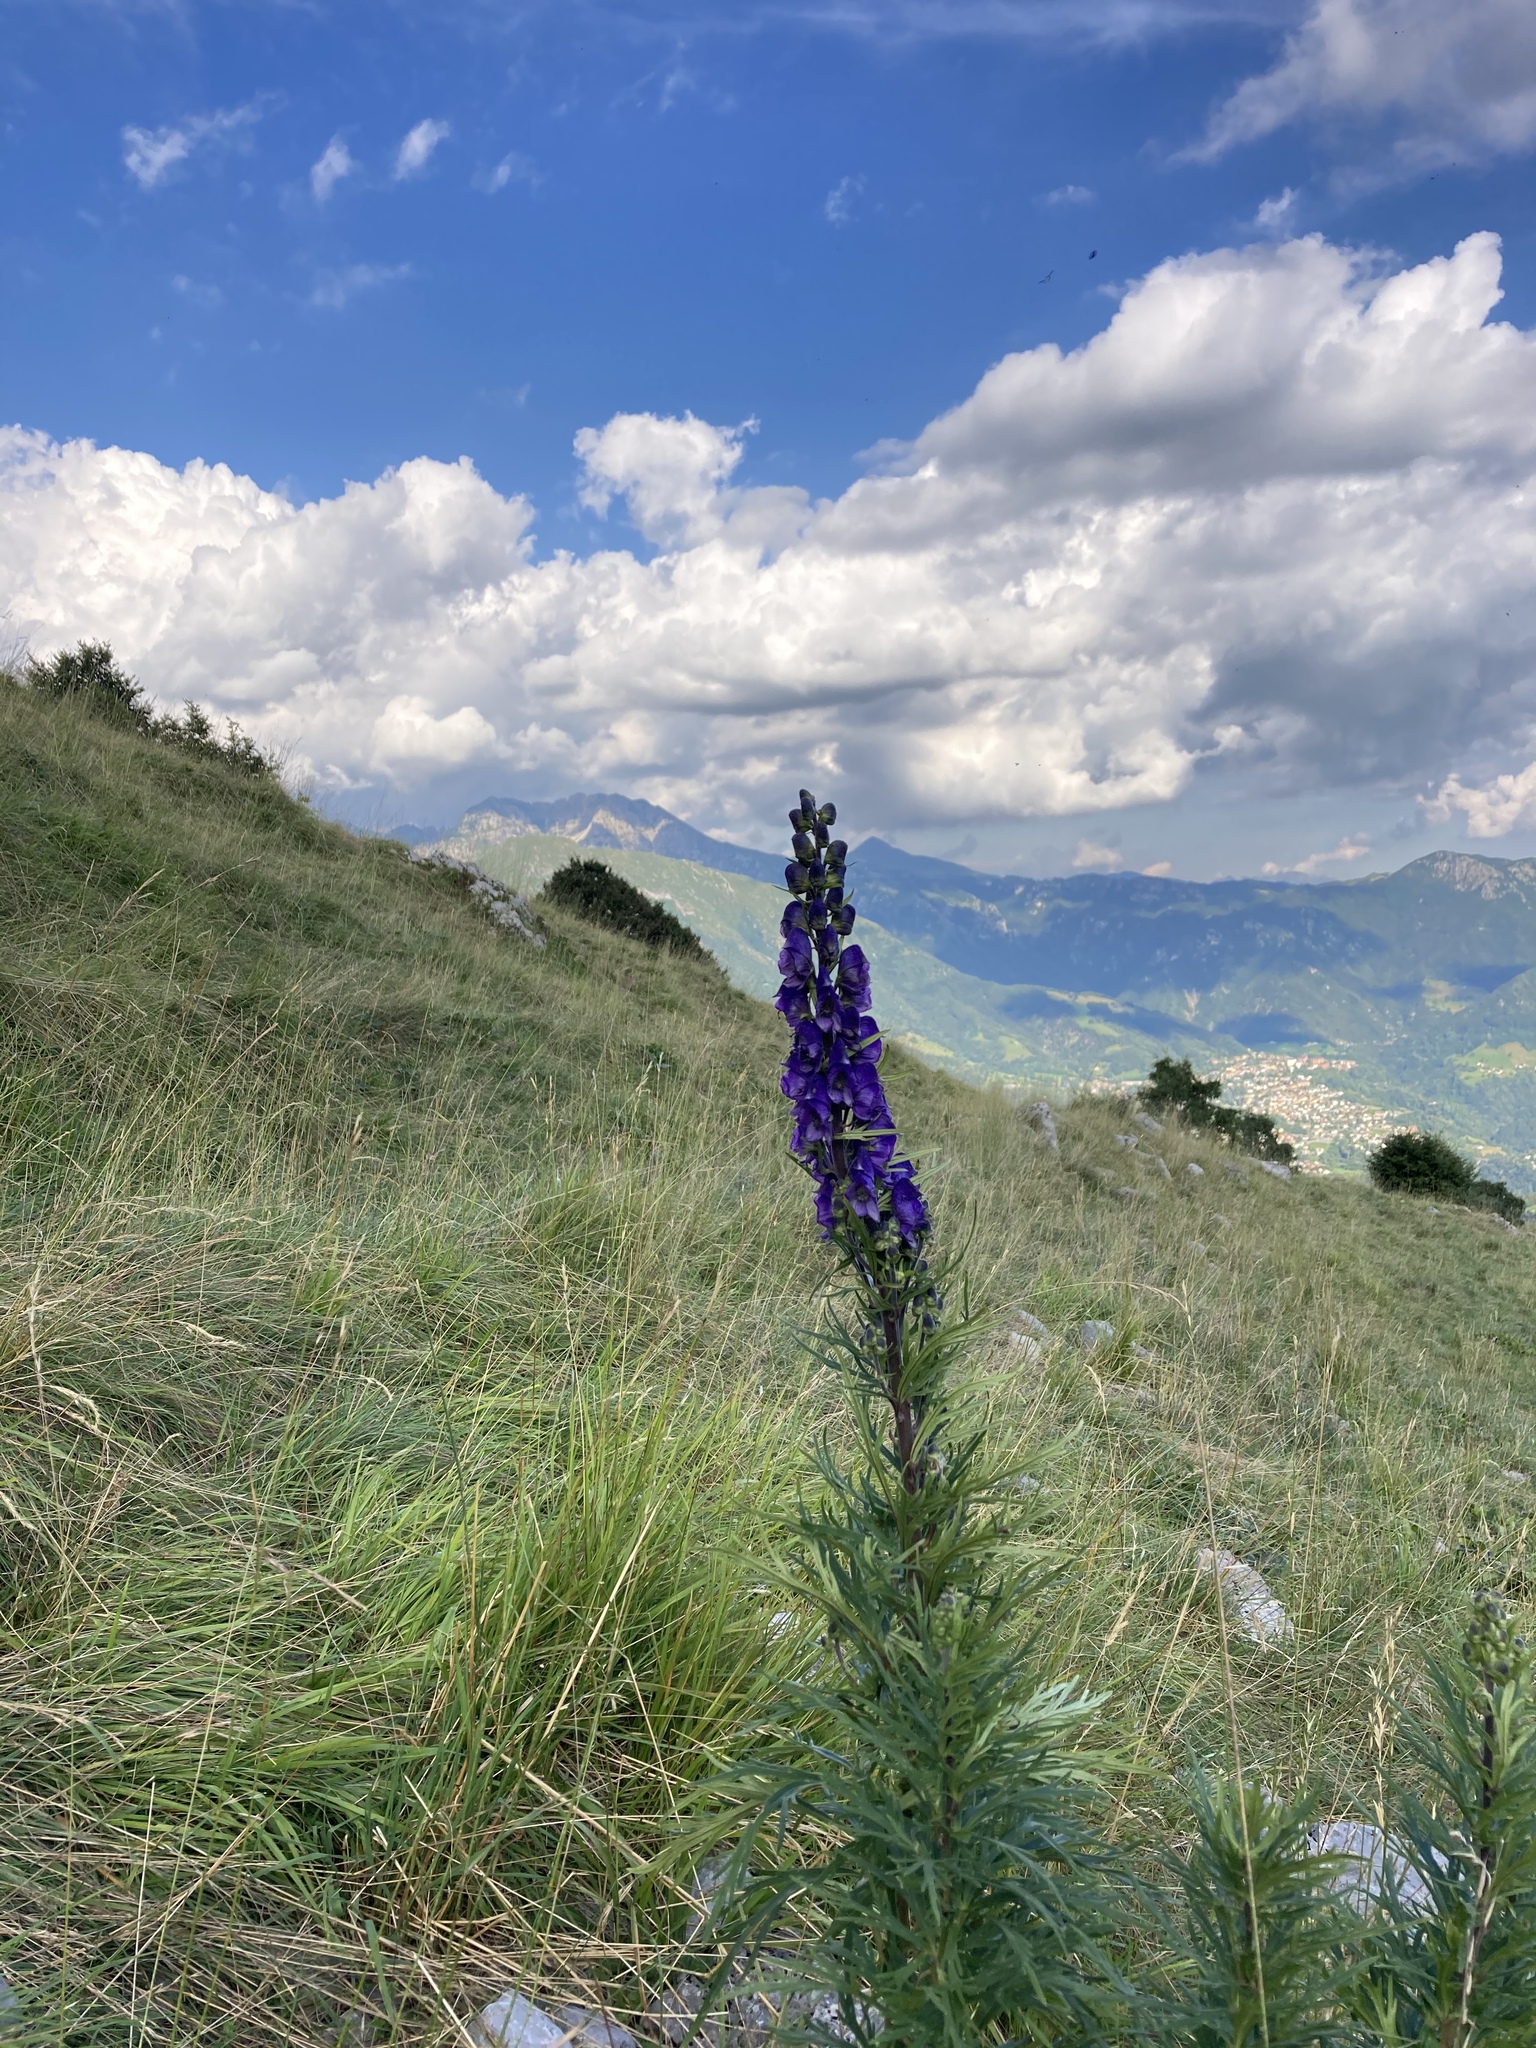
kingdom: Plantae
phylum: Tracheophyta
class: Magnoliopsida
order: Ranunculales
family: Ranunculaceae
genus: Aconitum
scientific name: Aconitum napellus
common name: Garden monkshood
